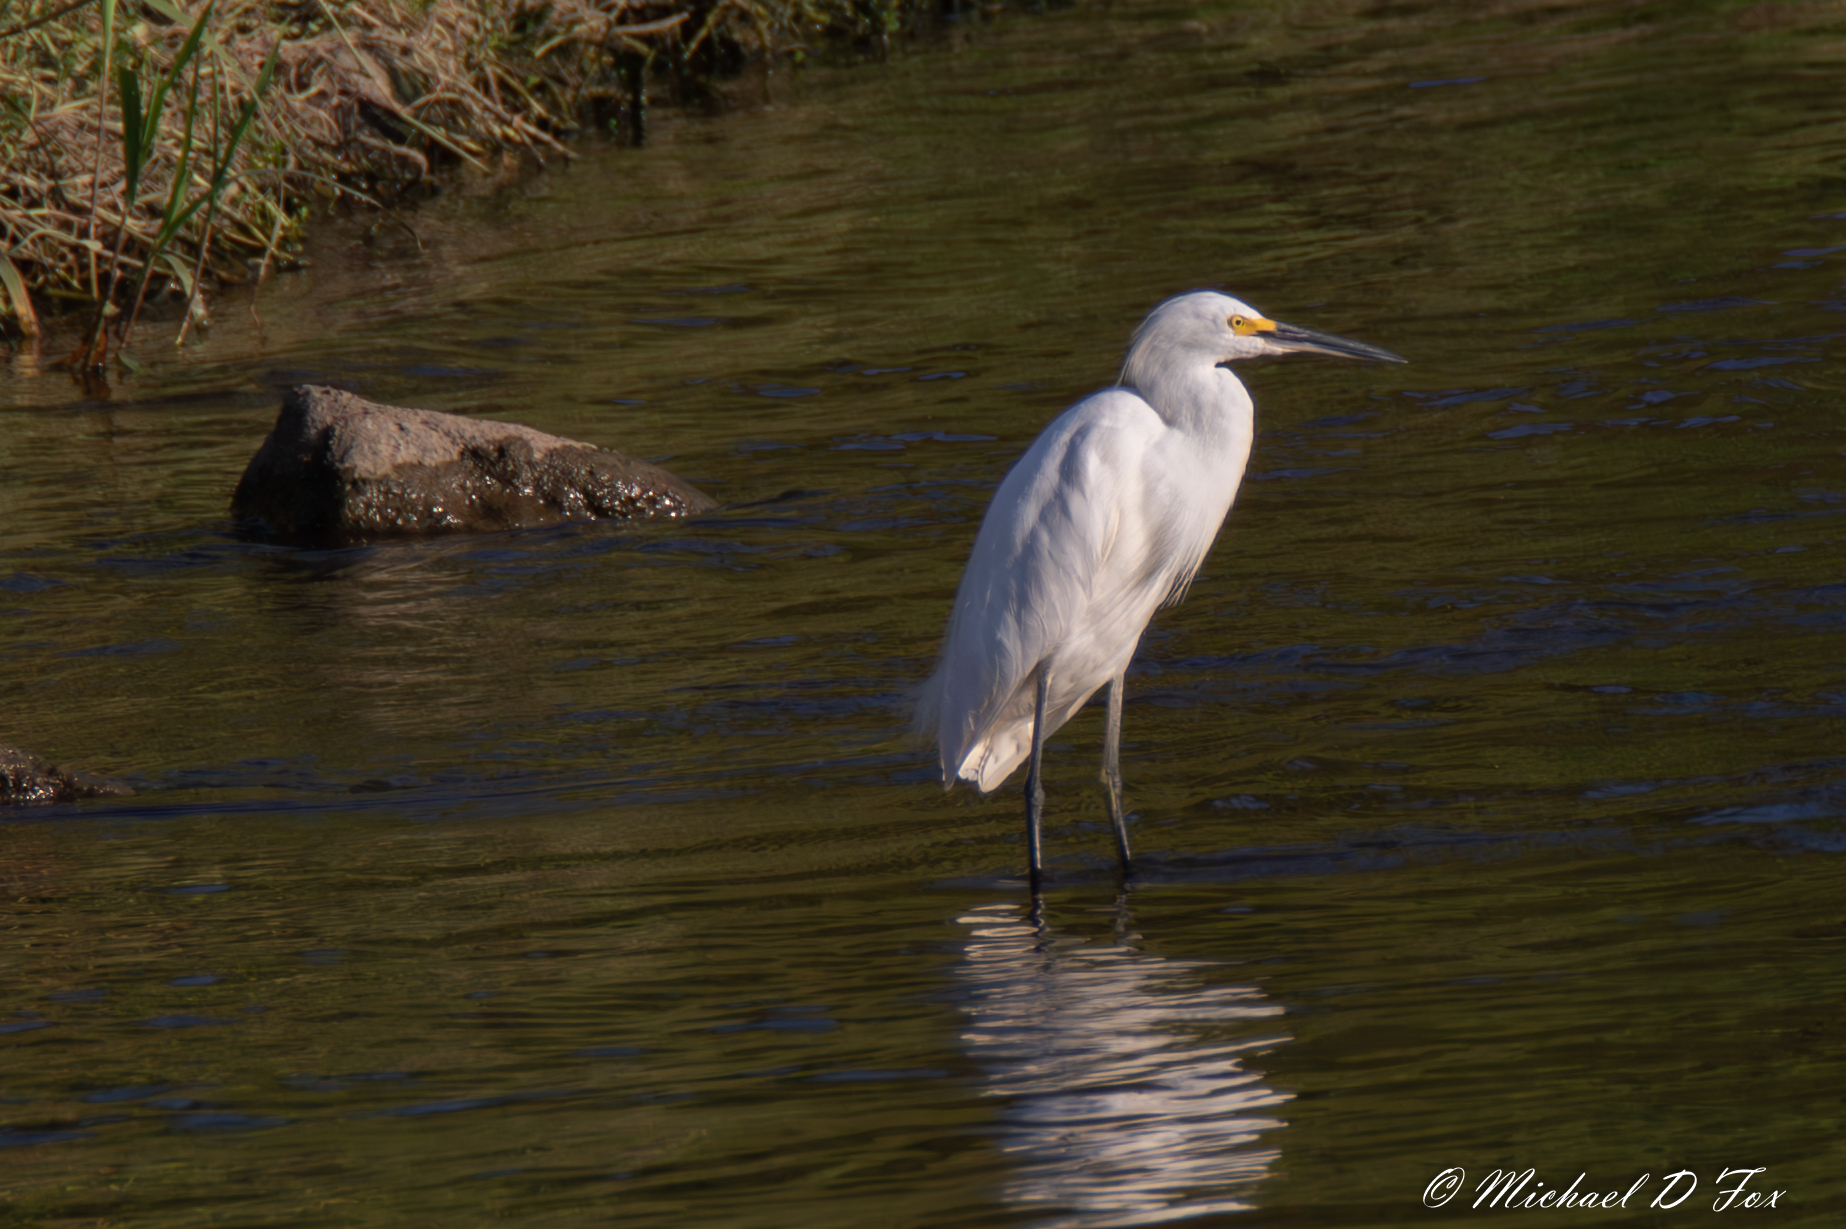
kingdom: Animalia
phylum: Chordata
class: Aves
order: Pelecaniformes
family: Ardeidae
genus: Egretta
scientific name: Egretta thula
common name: Snowy egret
